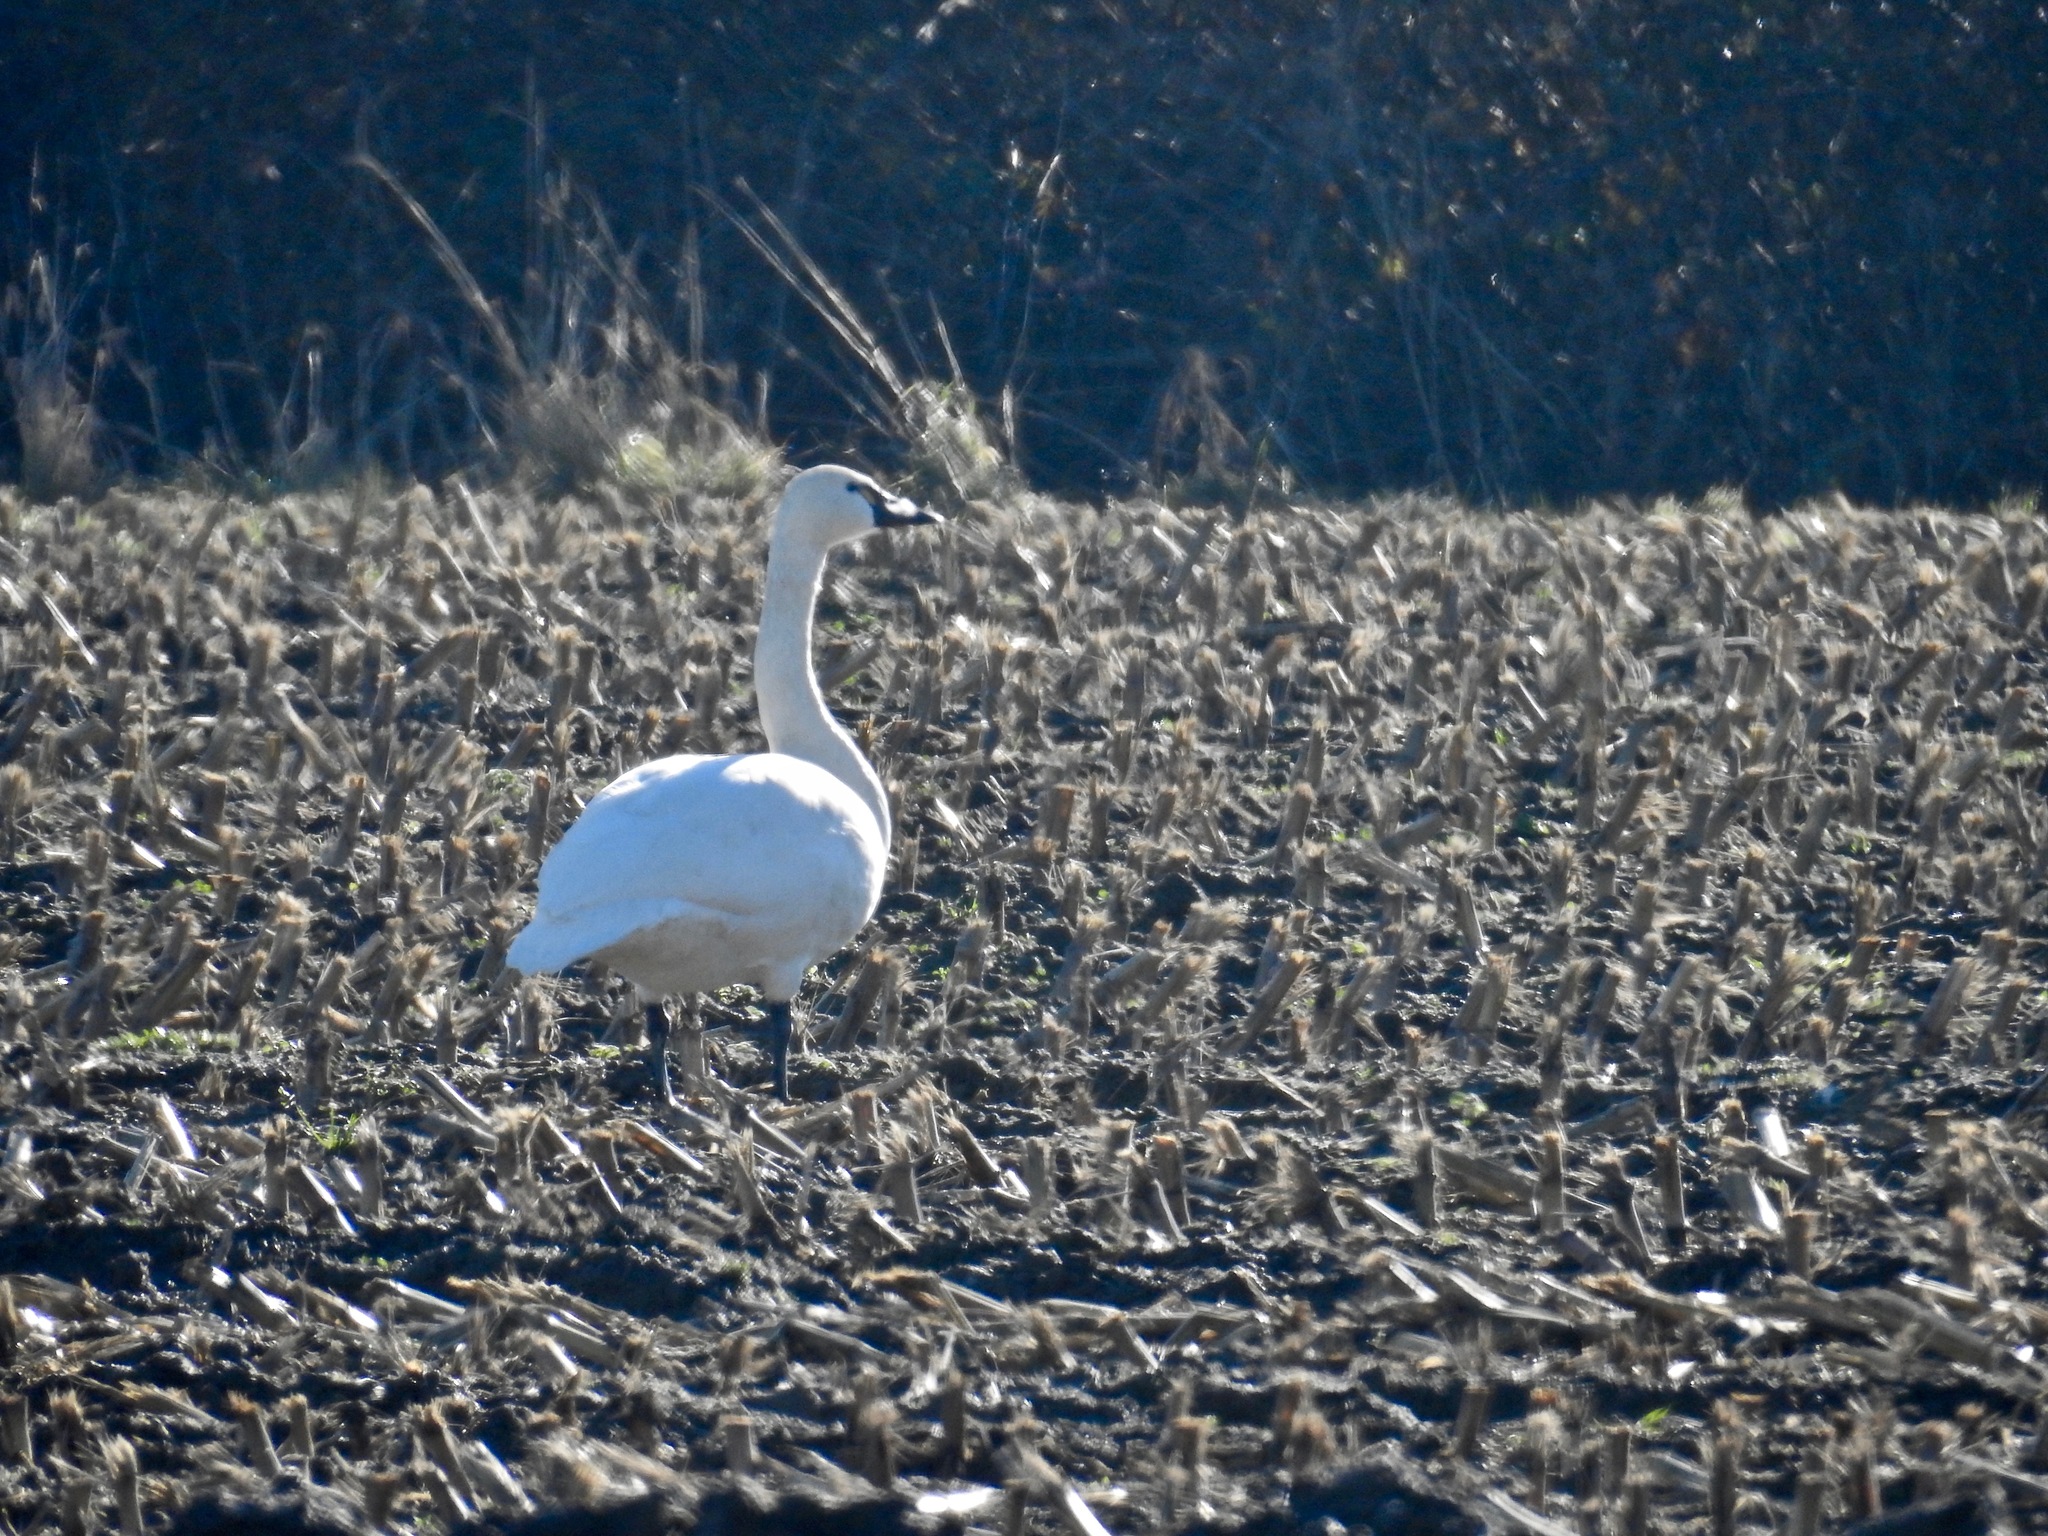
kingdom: Animalia
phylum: Chordata
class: Aves
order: Anseriformes
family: Anatidae
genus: Cygnus
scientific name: Cygnus columbianus
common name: Tundra swan
